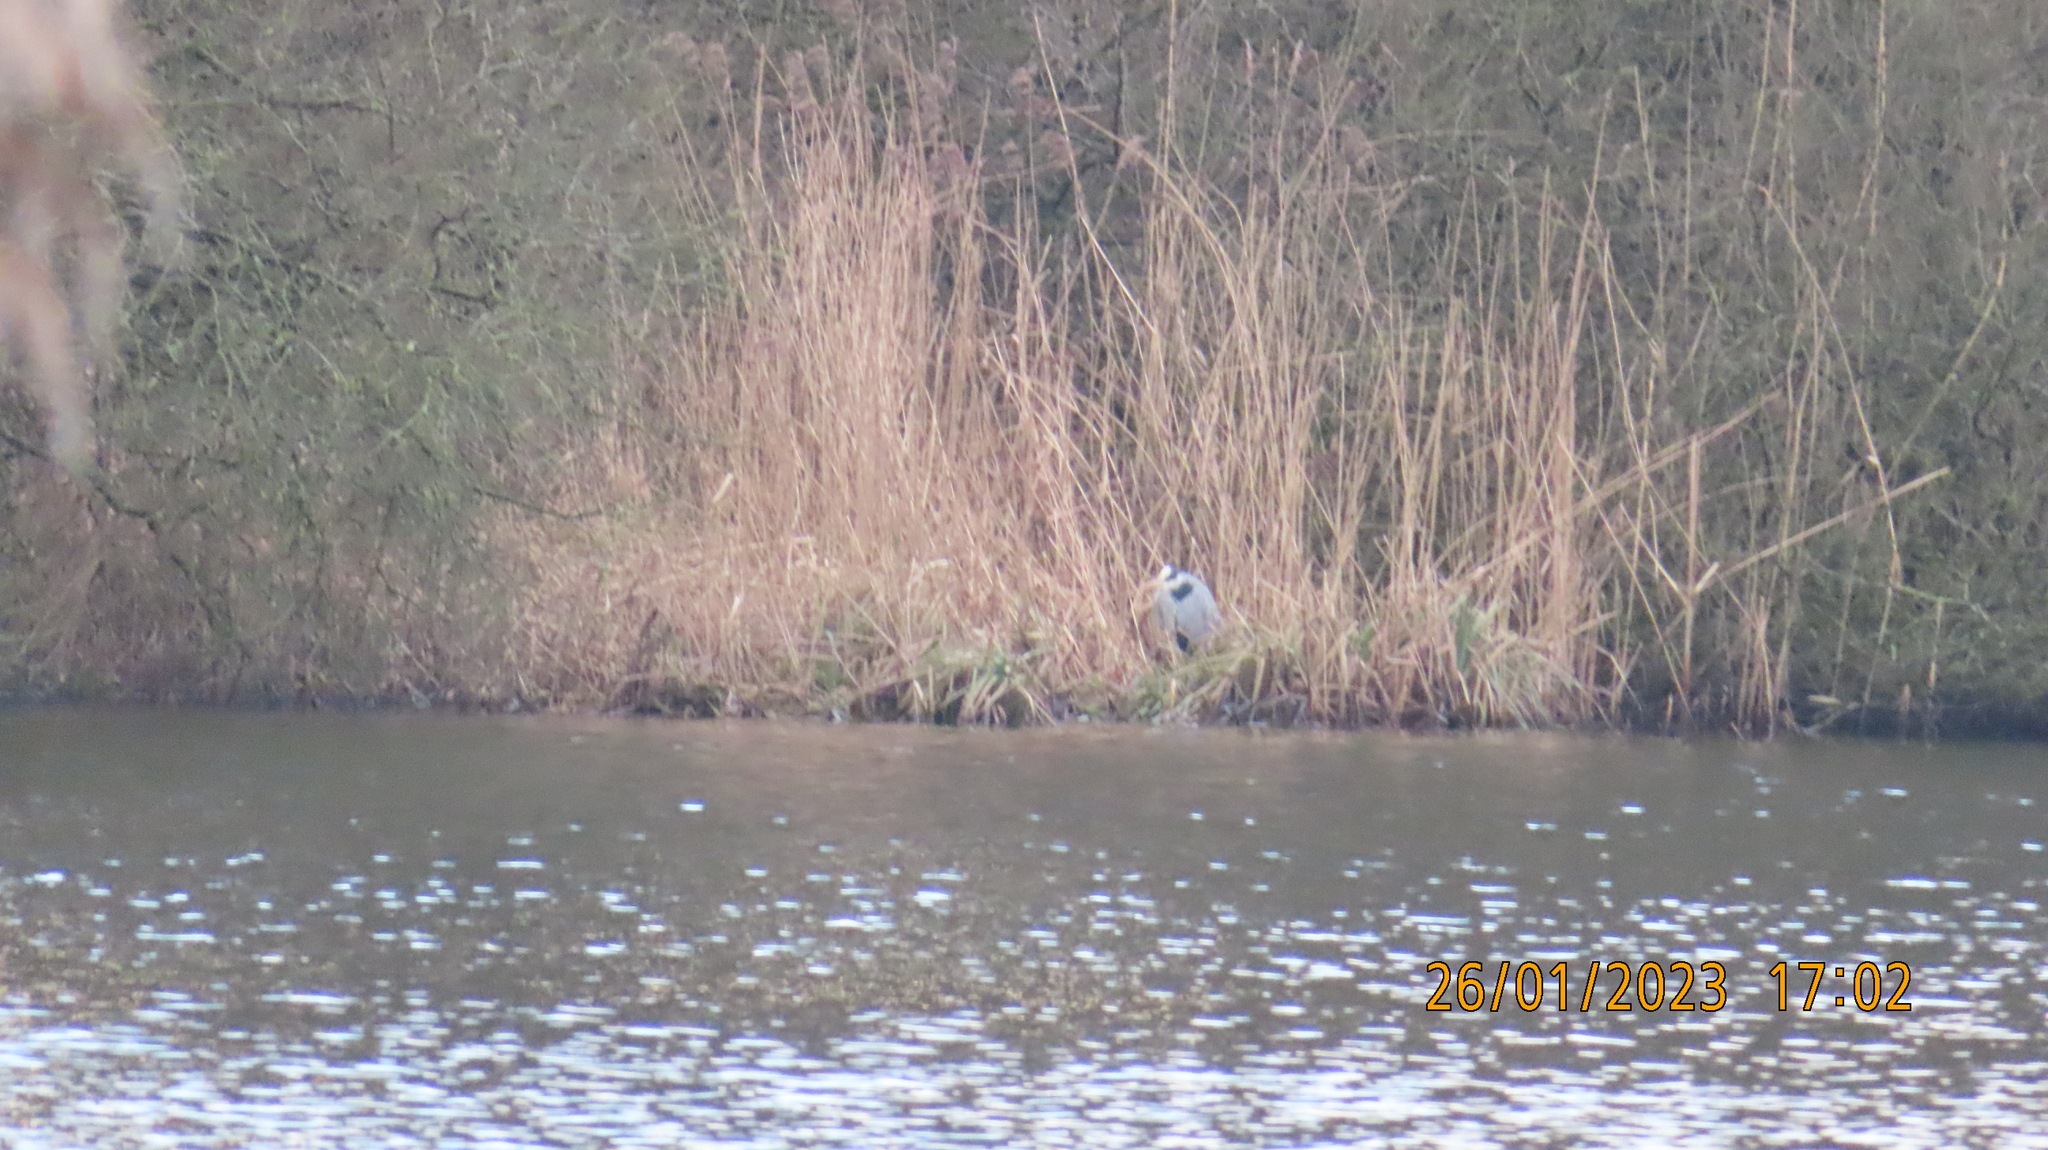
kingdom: Animalia
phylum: Chordata
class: Aves
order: Pelecaniformes
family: Ardeidae
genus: Ardea
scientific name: Ardea cinerea
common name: Grey heron
